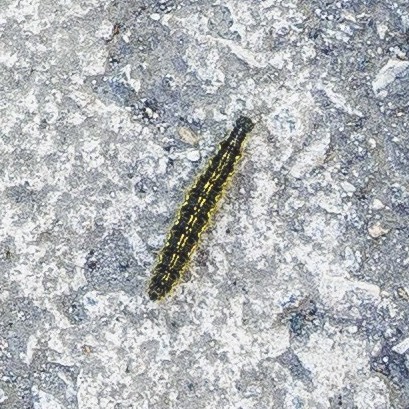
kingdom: Animalia
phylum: Arthropoda
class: Insecta
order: Lepidoptera
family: Nymphalidae
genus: Aglais
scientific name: Aglais urticae
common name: Small tortoiseshell
